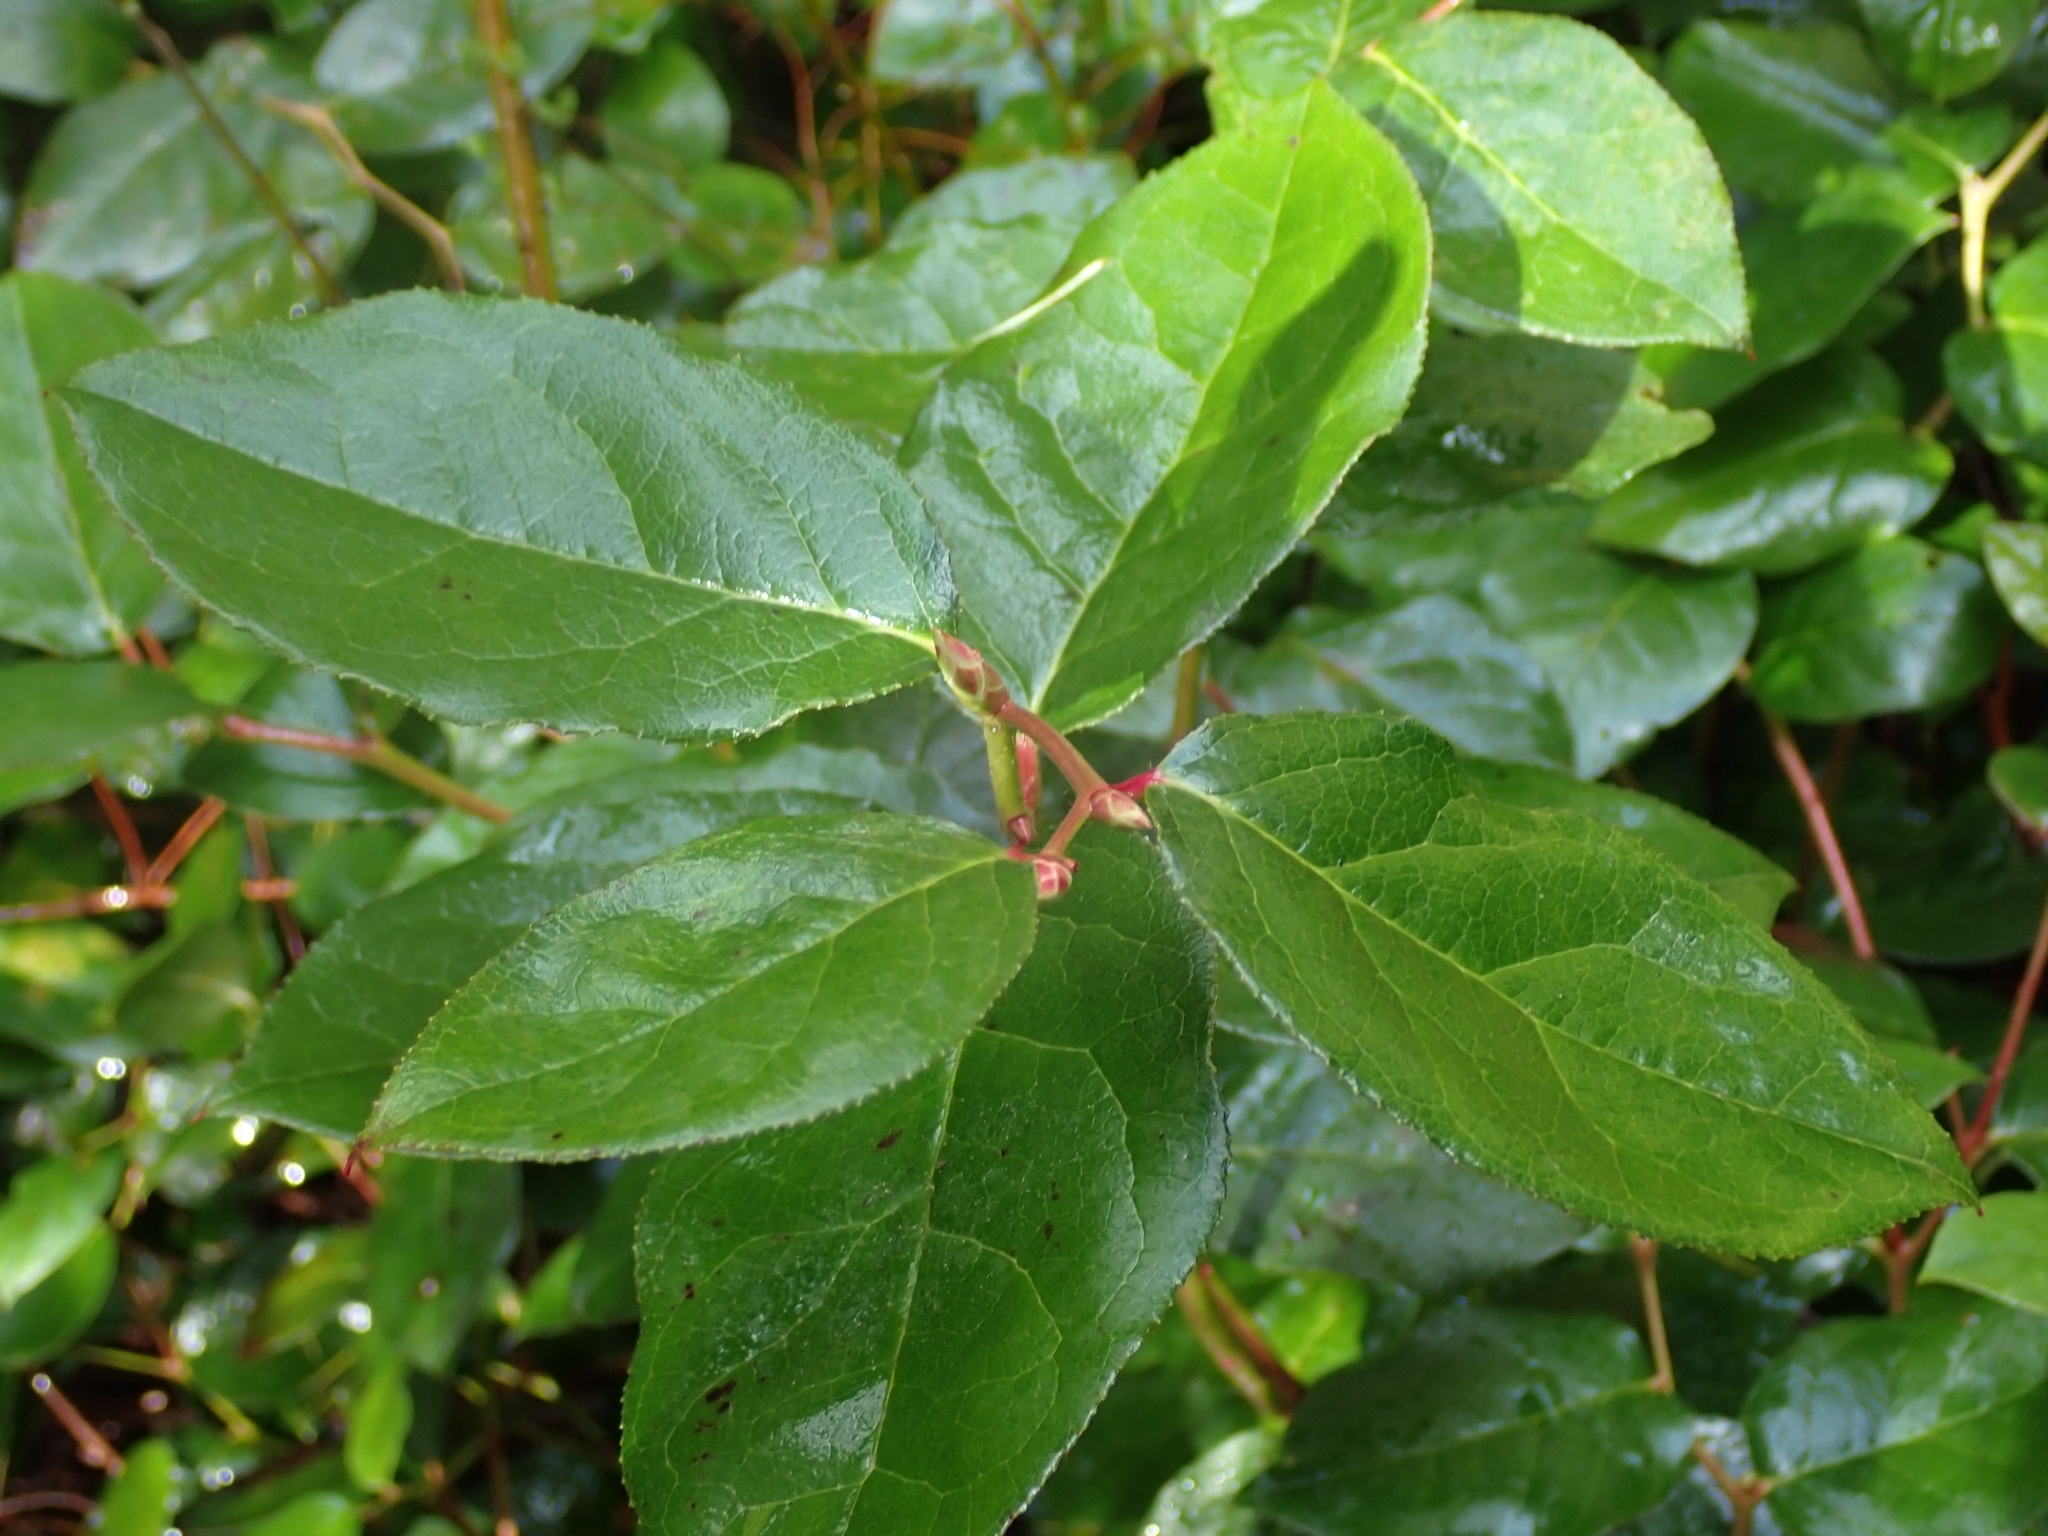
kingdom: Plantae
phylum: Tracheophyta
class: Magnoliopsida
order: Ericales
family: Ericaceae
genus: Gaultheria
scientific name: Gaultheria shallon
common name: Shallon
